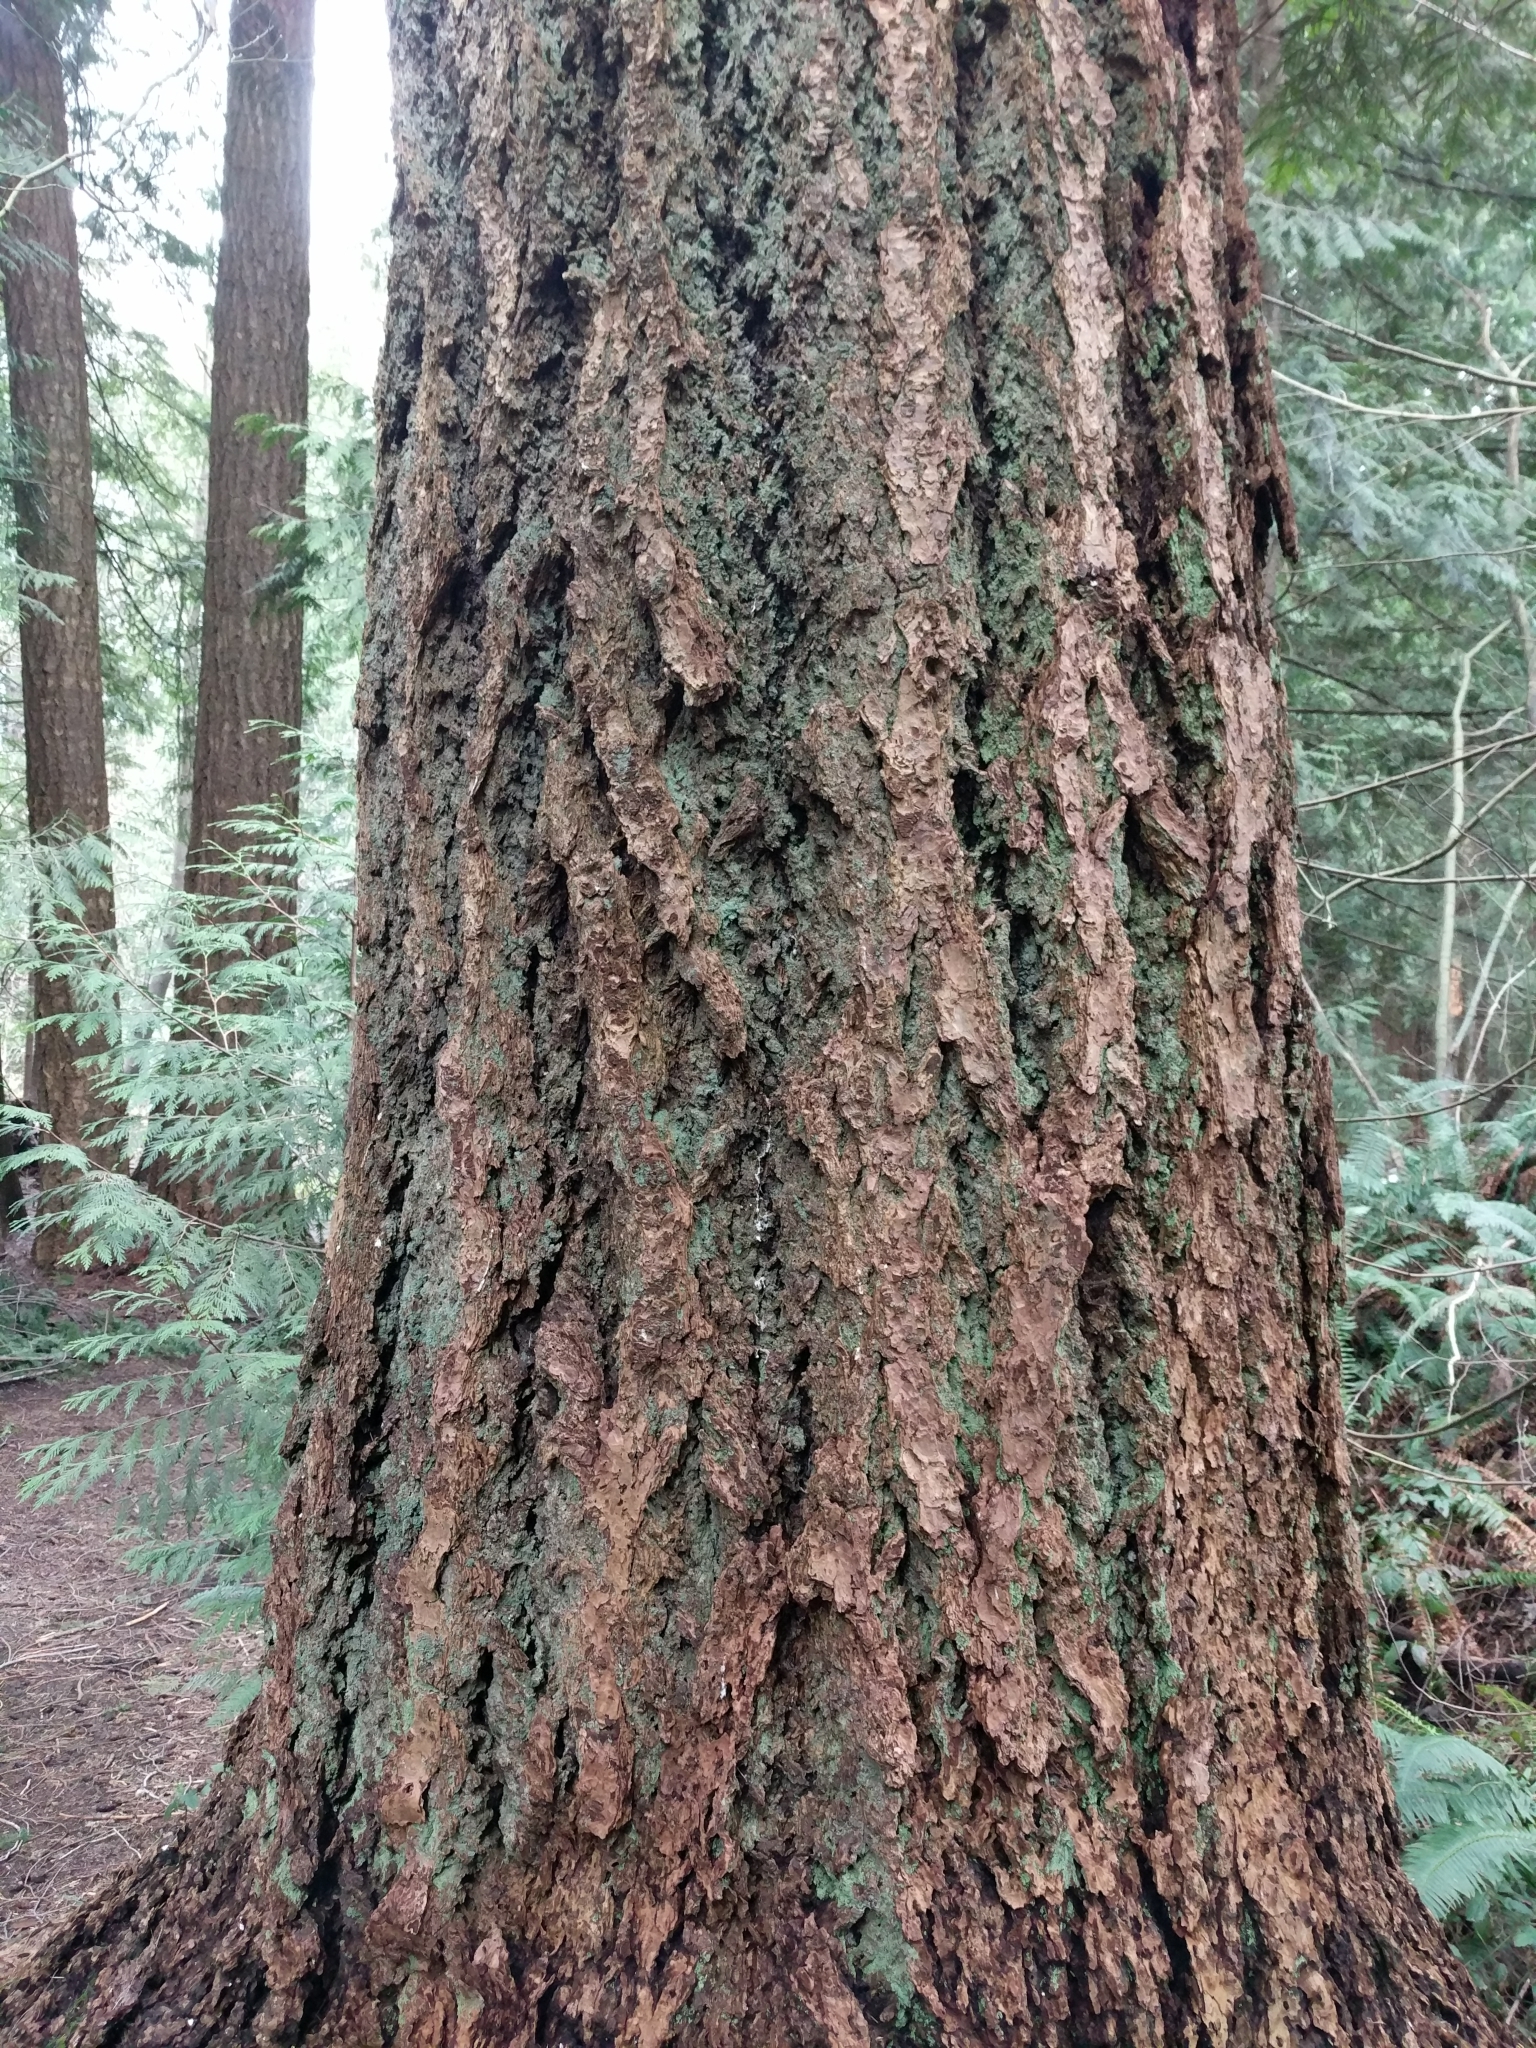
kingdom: Plantae
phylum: Tracheophyta
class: Pinopsida
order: Pinales
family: Pinaceae
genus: Pseudotsuga
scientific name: Pseudotsuga menziesii
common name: Douglas fir
